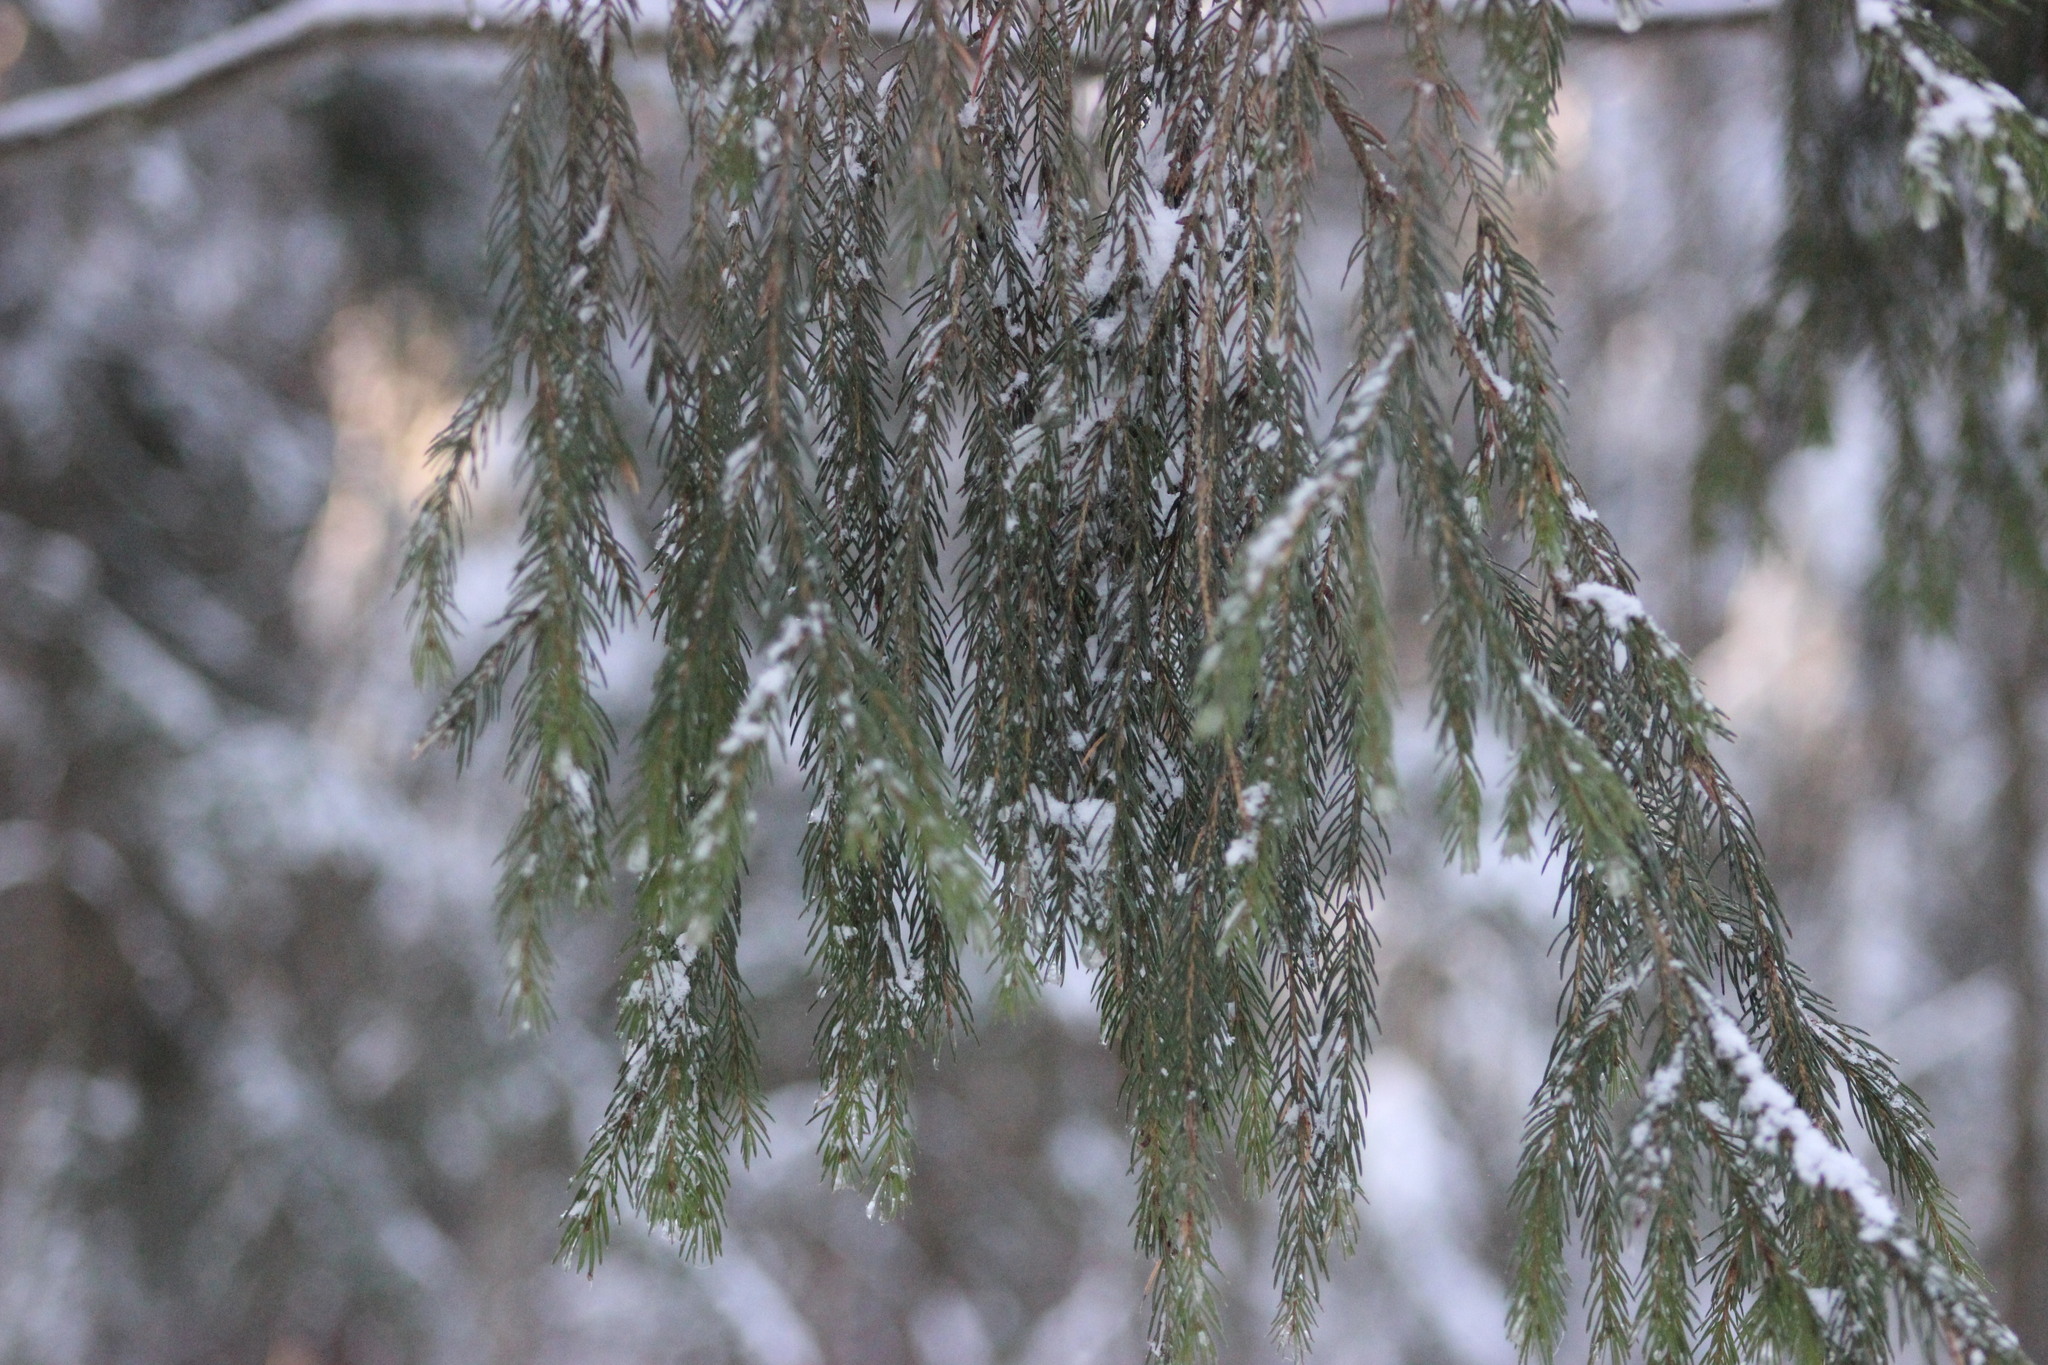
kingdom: Plantae
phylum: Tracheophyta
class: Pinopsida
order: Pinales
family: Pinaceae
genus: Picea
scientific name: Picea obovata
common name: Siberian spruce
